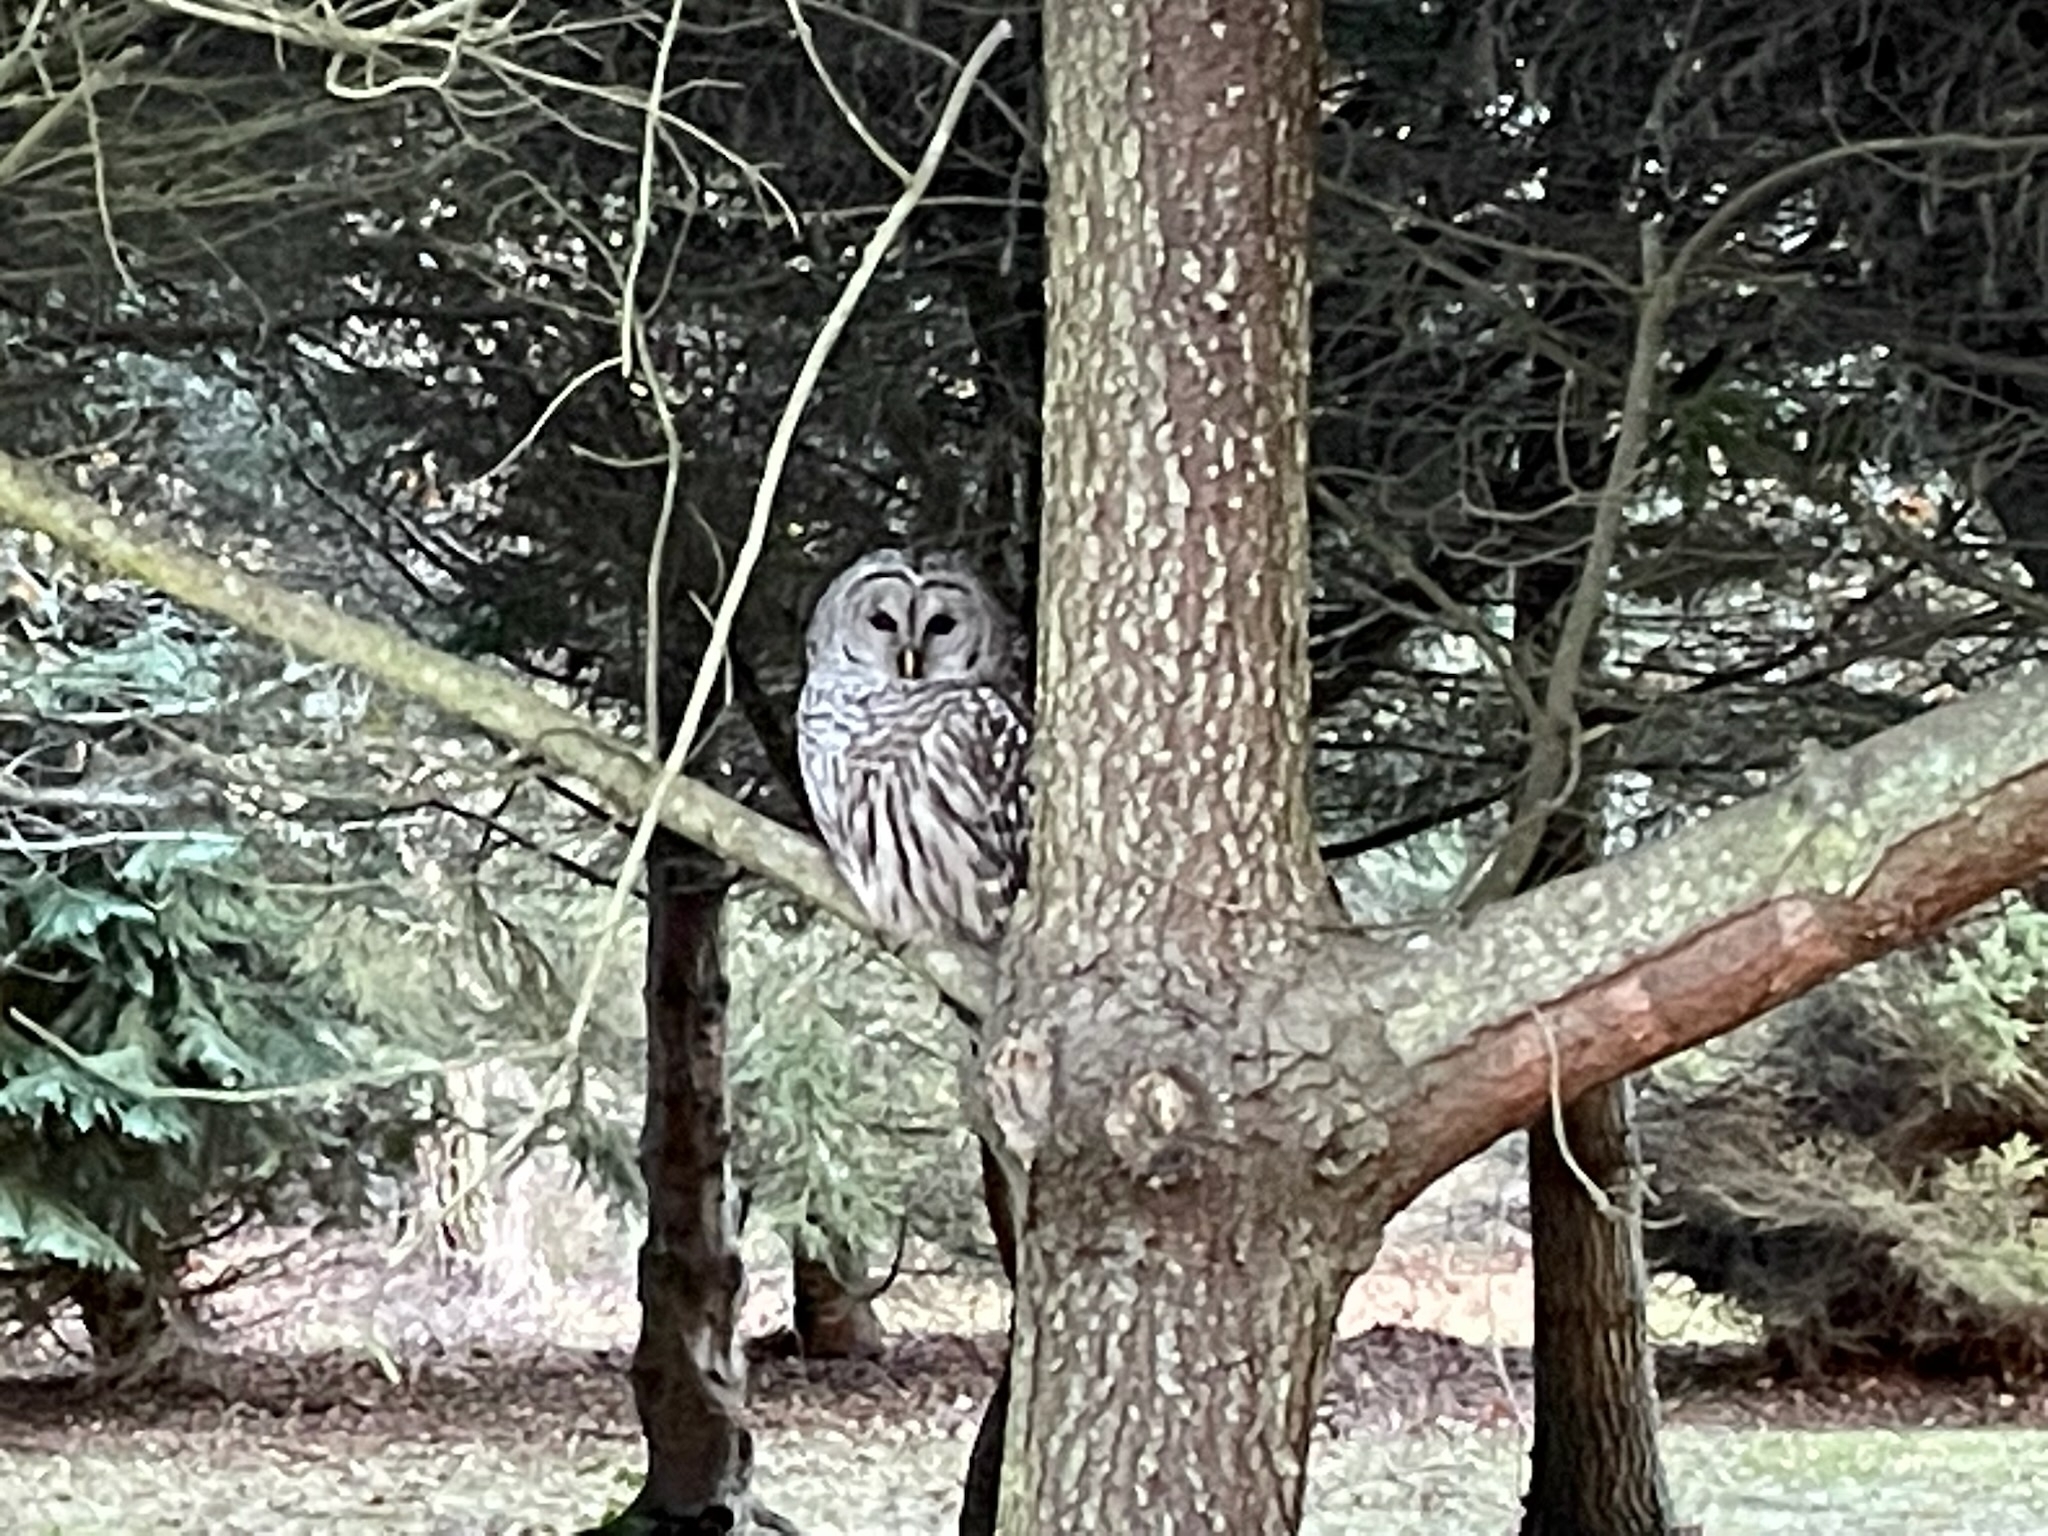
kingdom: Animalia
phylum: Chordata
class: Aves
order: Strigiformes
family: Strigidae
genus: Strix
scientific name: Strix varia
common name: Barred owl
